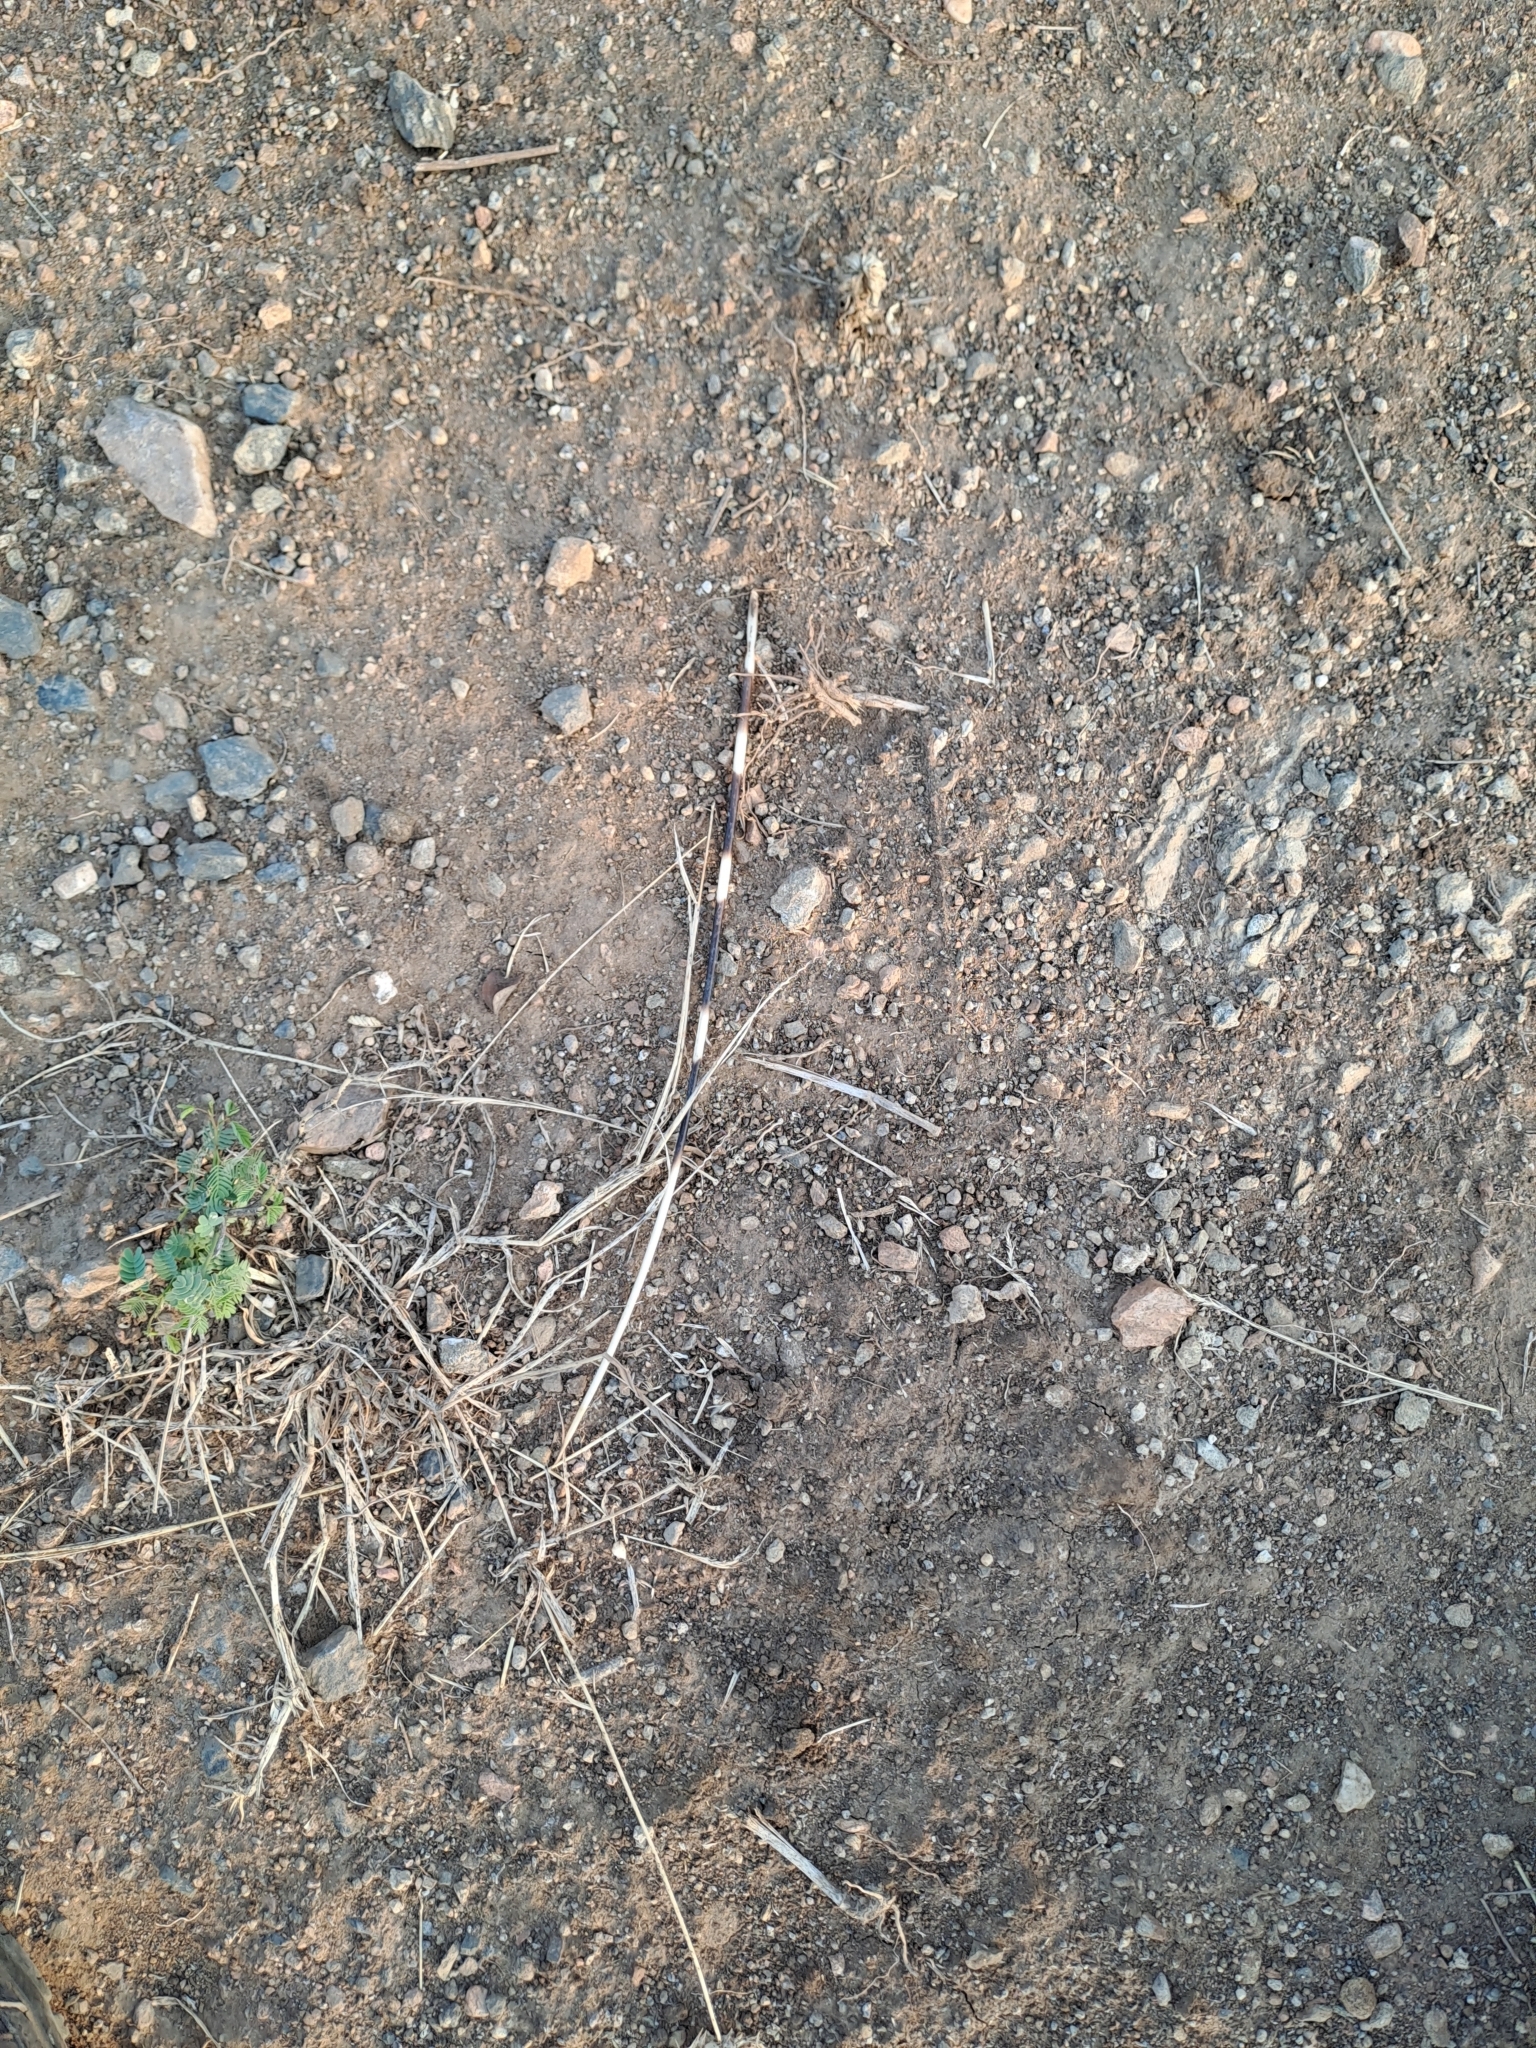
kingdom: Animalia
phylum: Chordata
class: Mammalia
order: Rodentia
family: Hystricidae
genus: Hystrix
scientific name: Hystrix indica
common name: Indian crested porcupine
